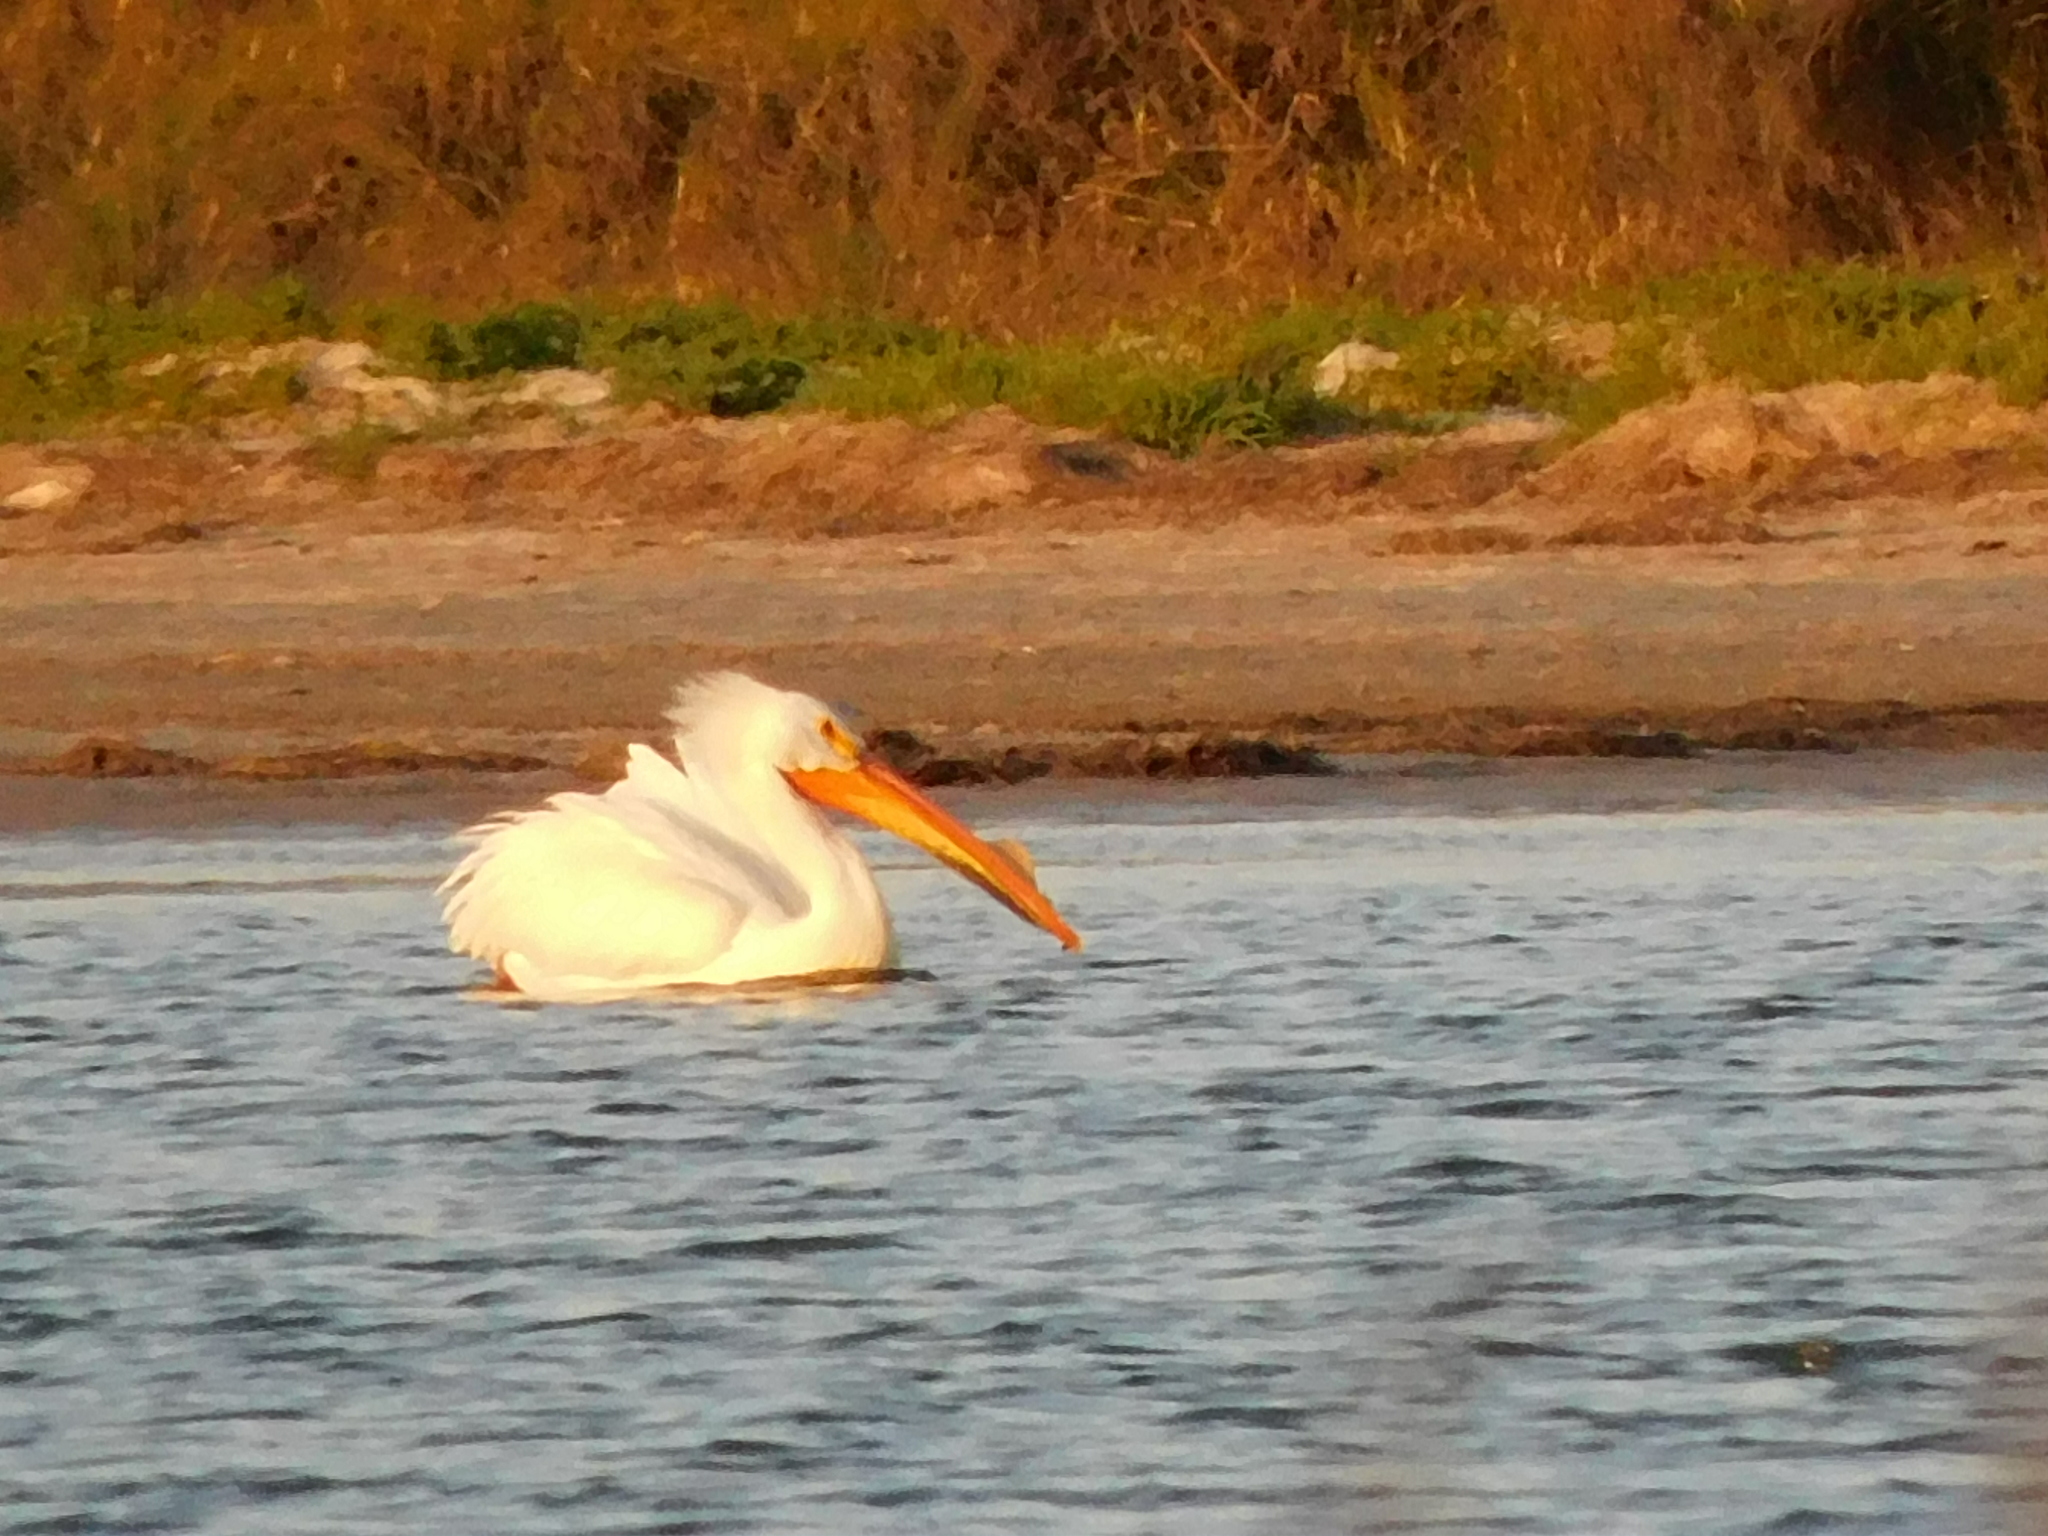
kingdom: Animalia
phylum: Chordata
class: Aves
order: Pelecaniformes
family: Pelecanidae
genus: Pelecanus
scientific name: Pelecanus erythrorhynchos
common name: American white pelican
